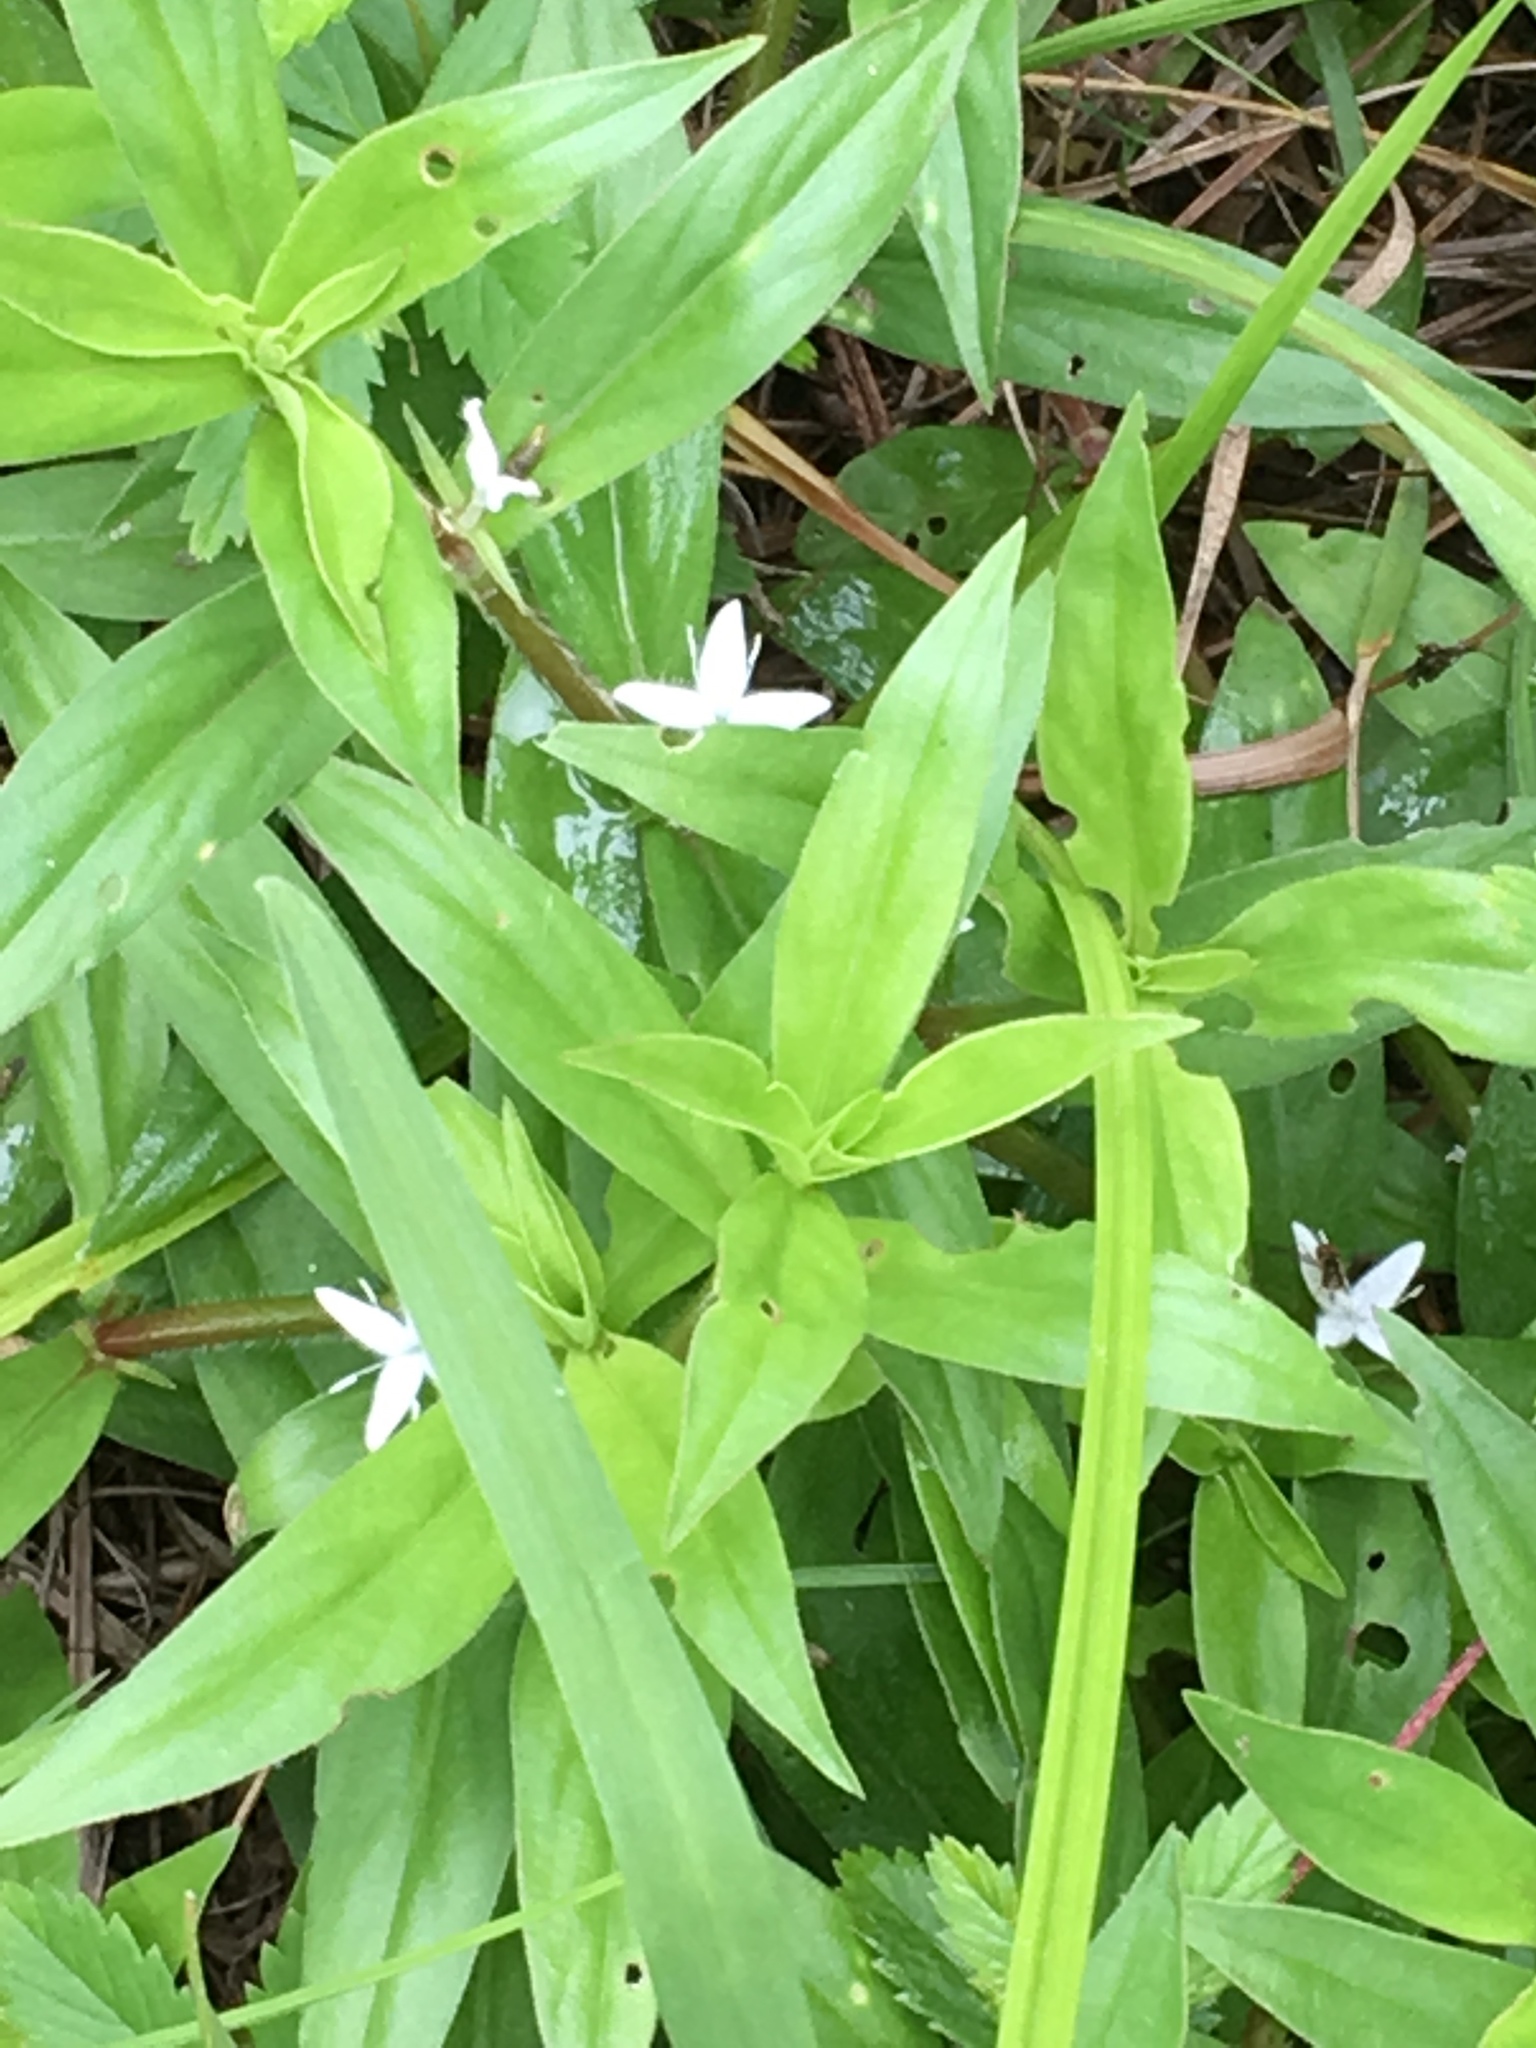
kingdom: Plantae
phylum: Tracheophyta
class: Magnoliopsida
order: Gentianales
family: Rubiaceae
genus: Diodia
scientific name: Diodia virginiana
